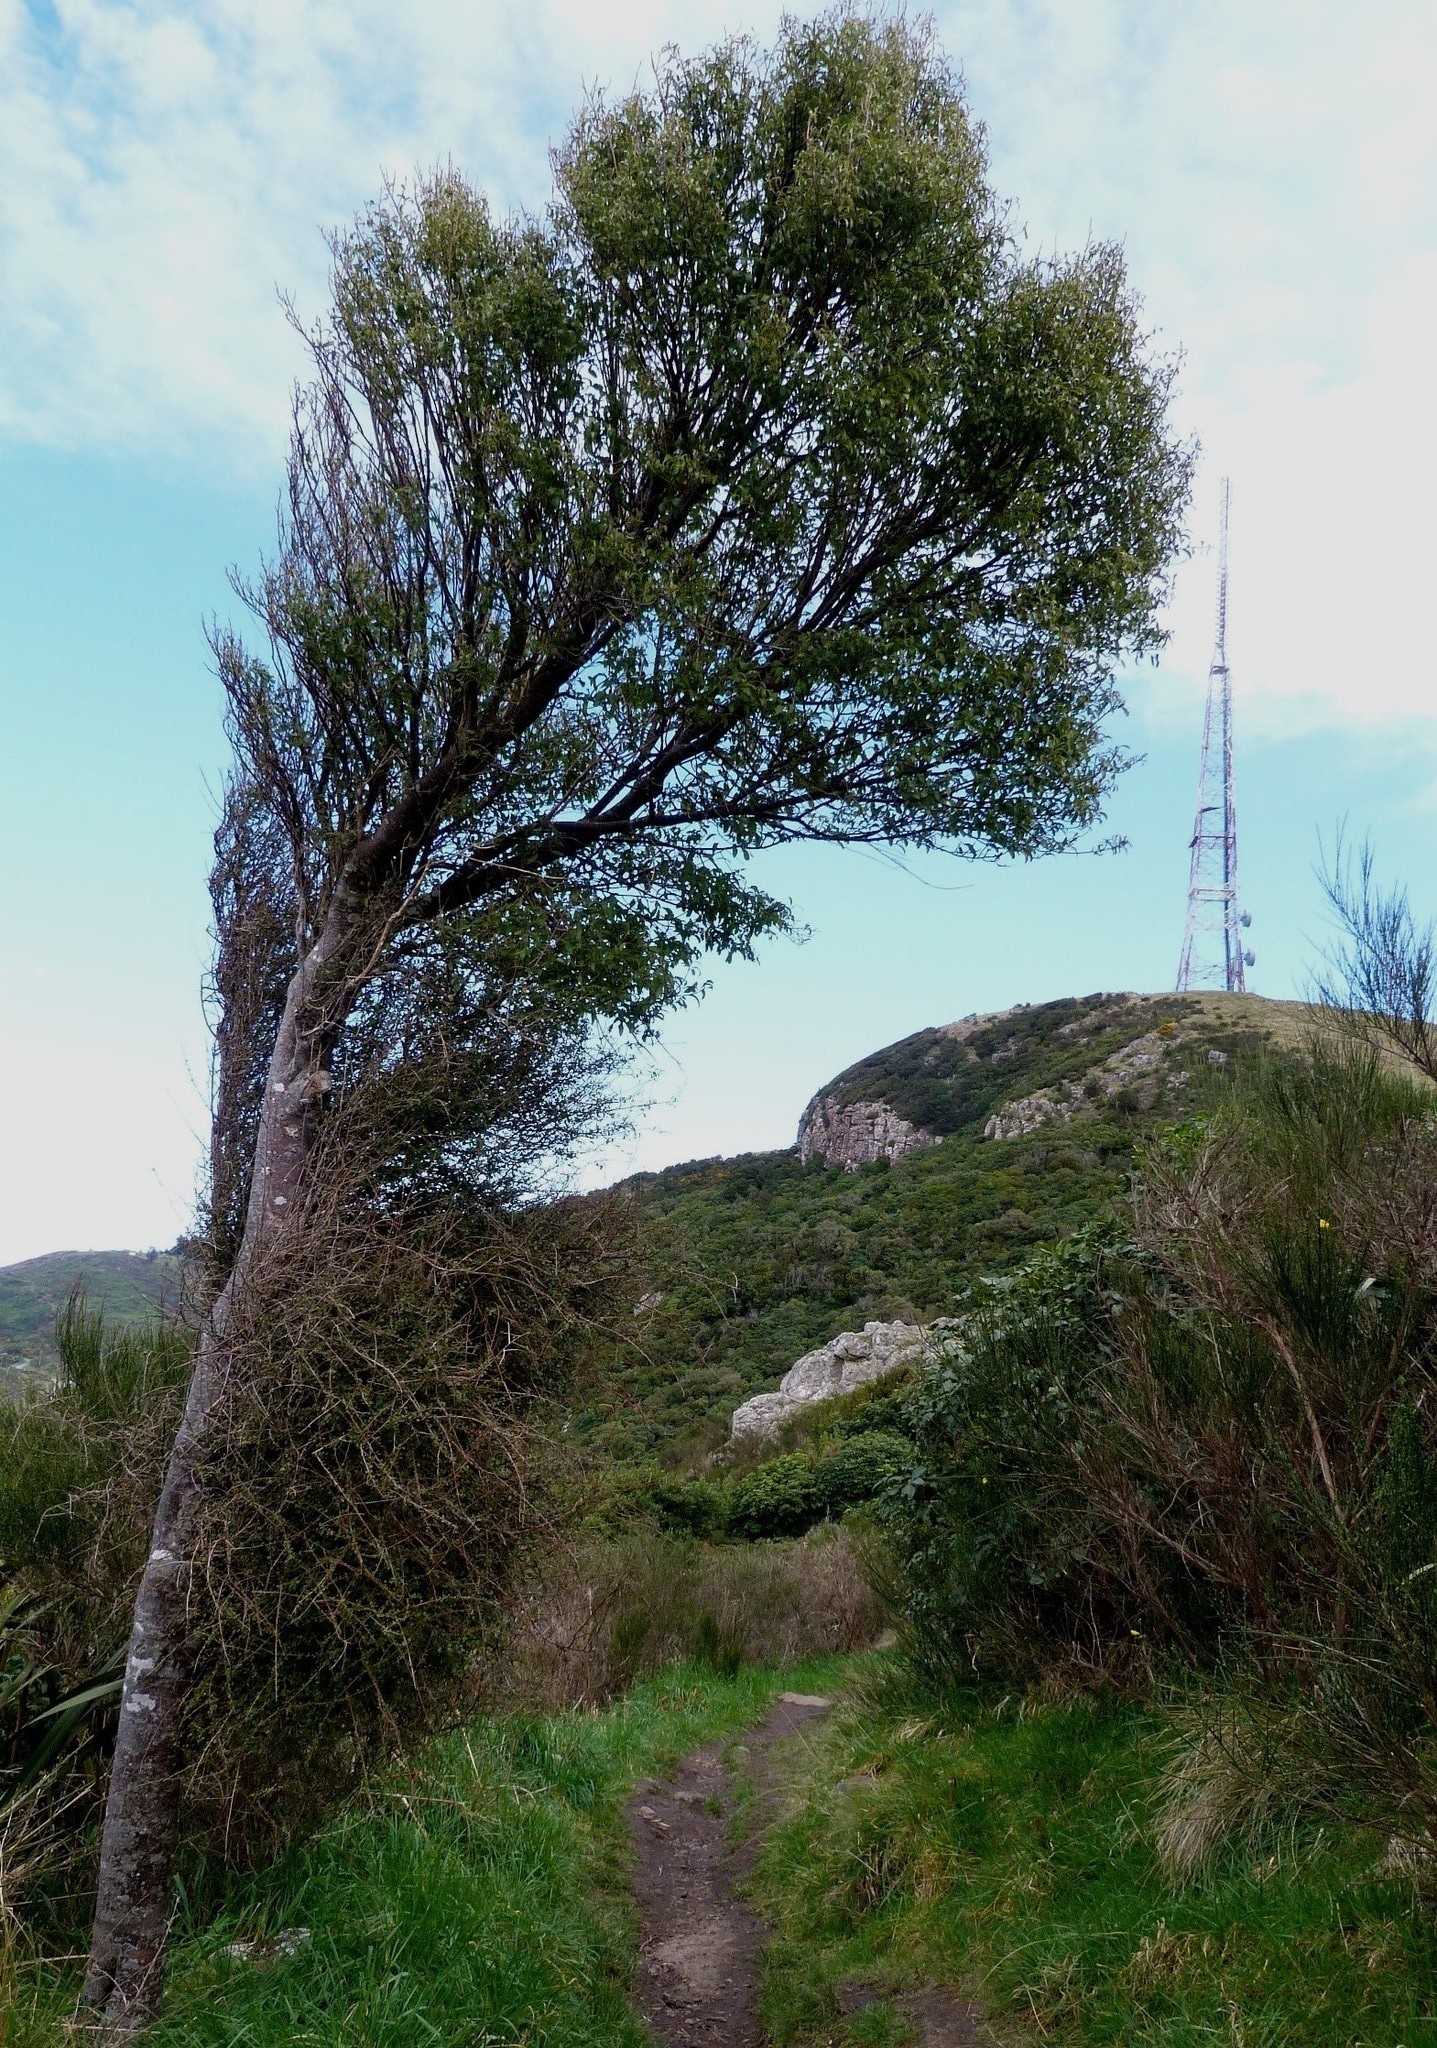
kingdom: Plantae
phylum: Tracheophyta
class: Magnoliopsida
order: Malvales
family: Malvaceae
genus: Hoheria
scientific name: Hoheria angustifolia
